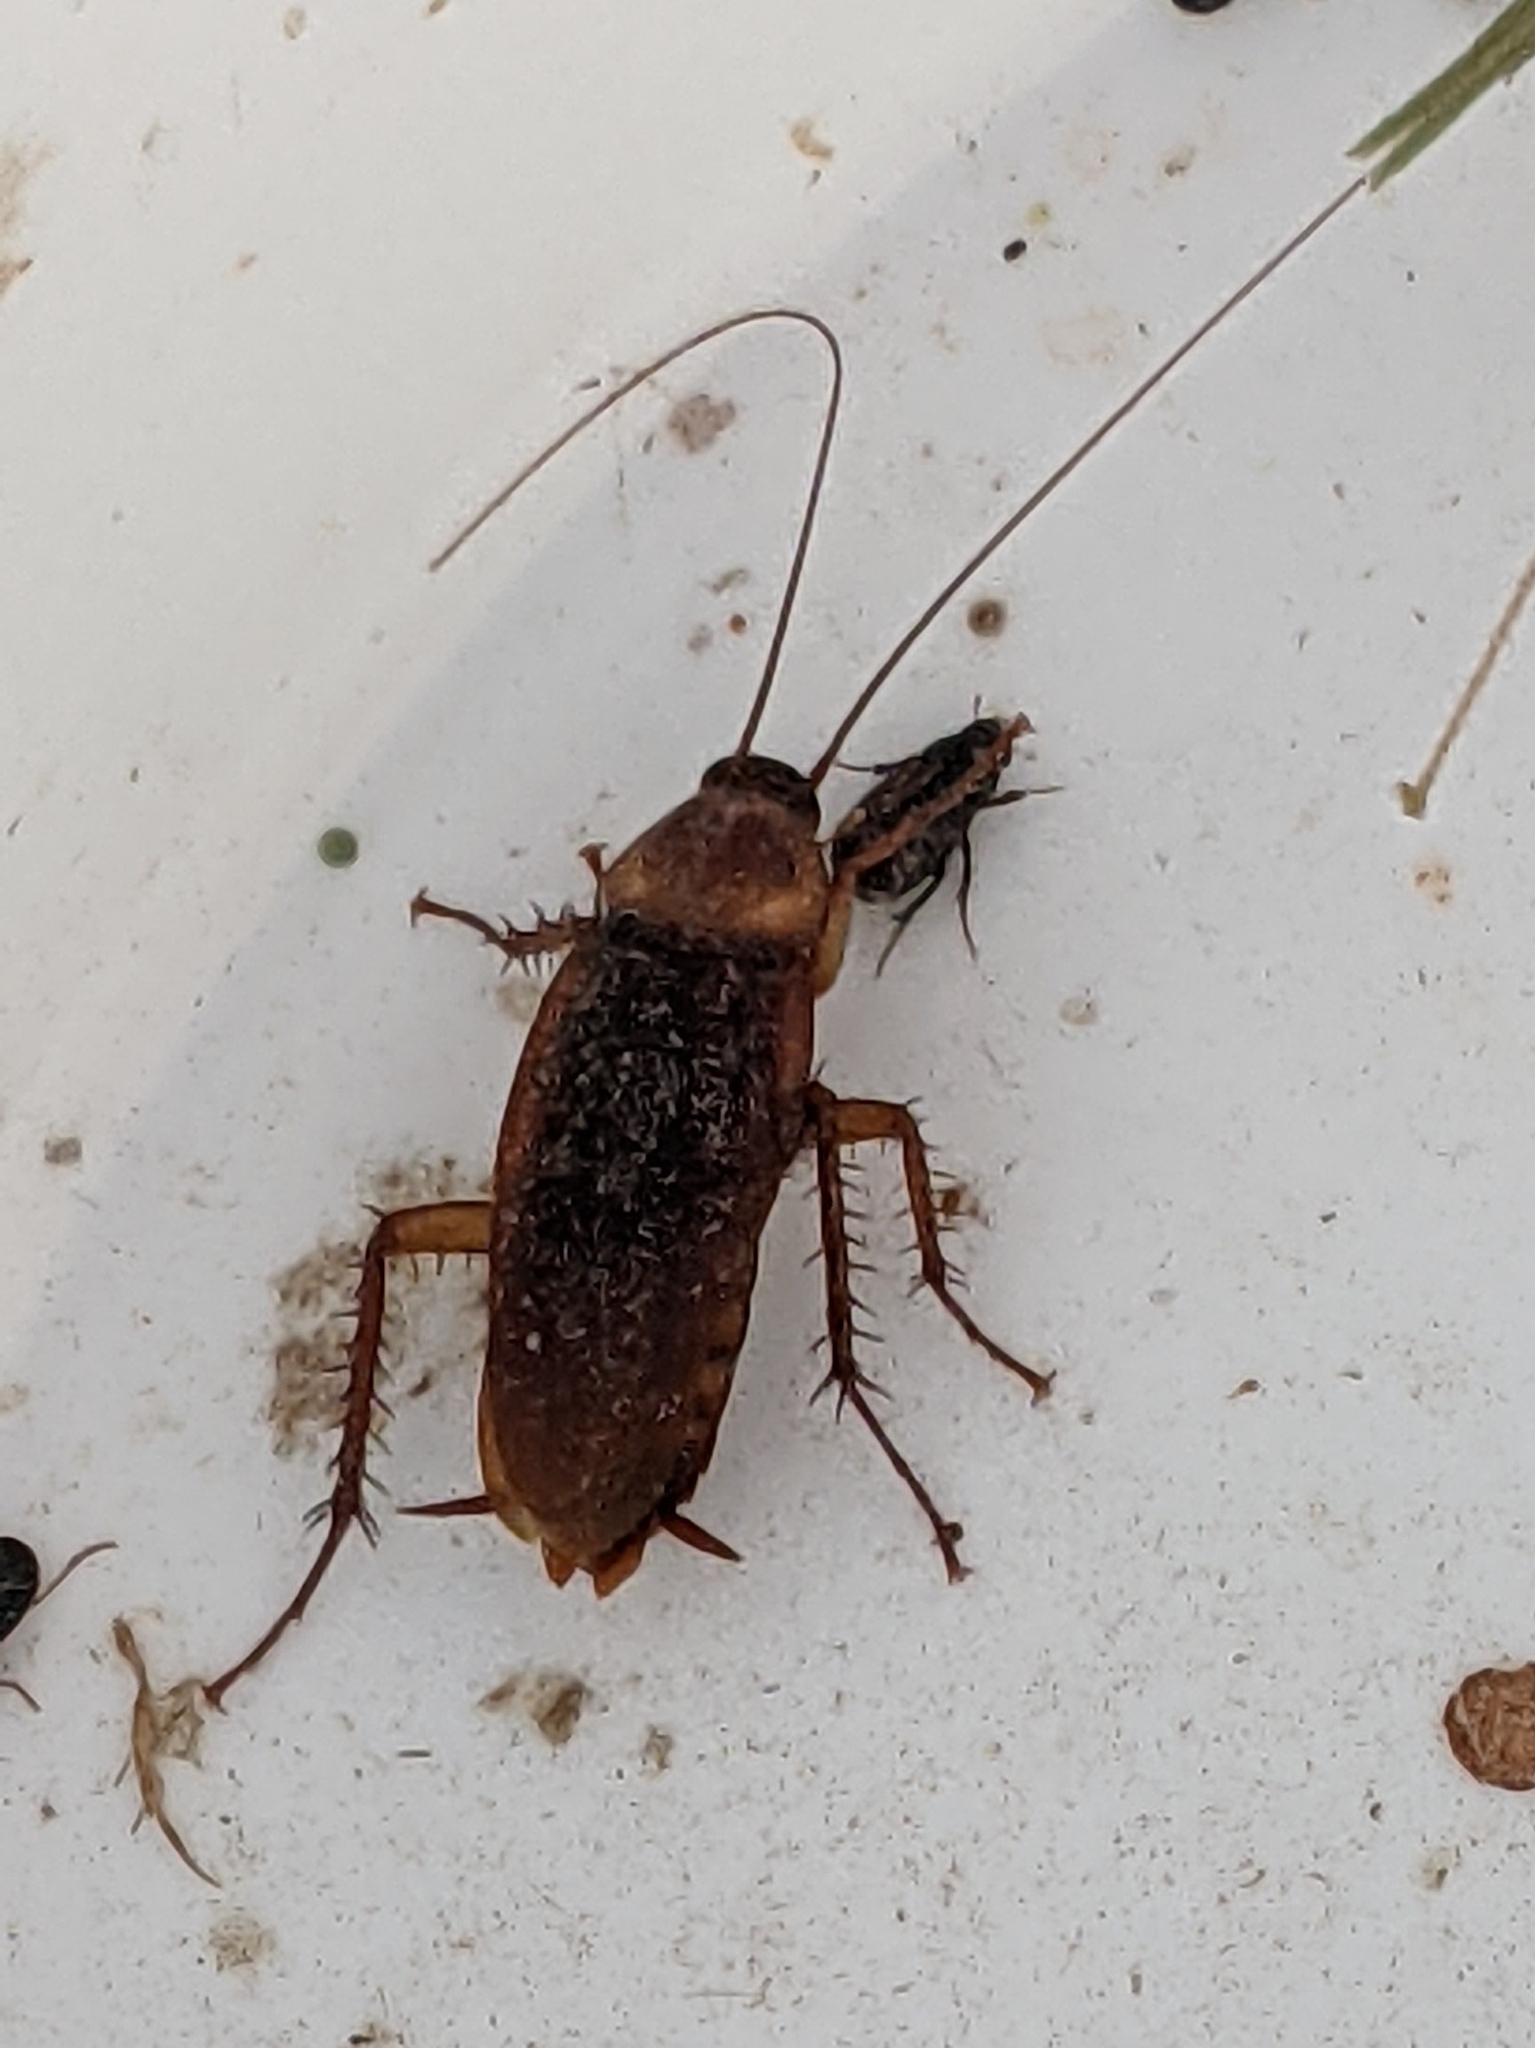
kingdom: Animalia
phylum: Arthropoda
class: Insecta
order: Blattodea
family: Blattidae
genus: Periplaneta
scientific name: Periplaneta americana
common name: American cockroach
